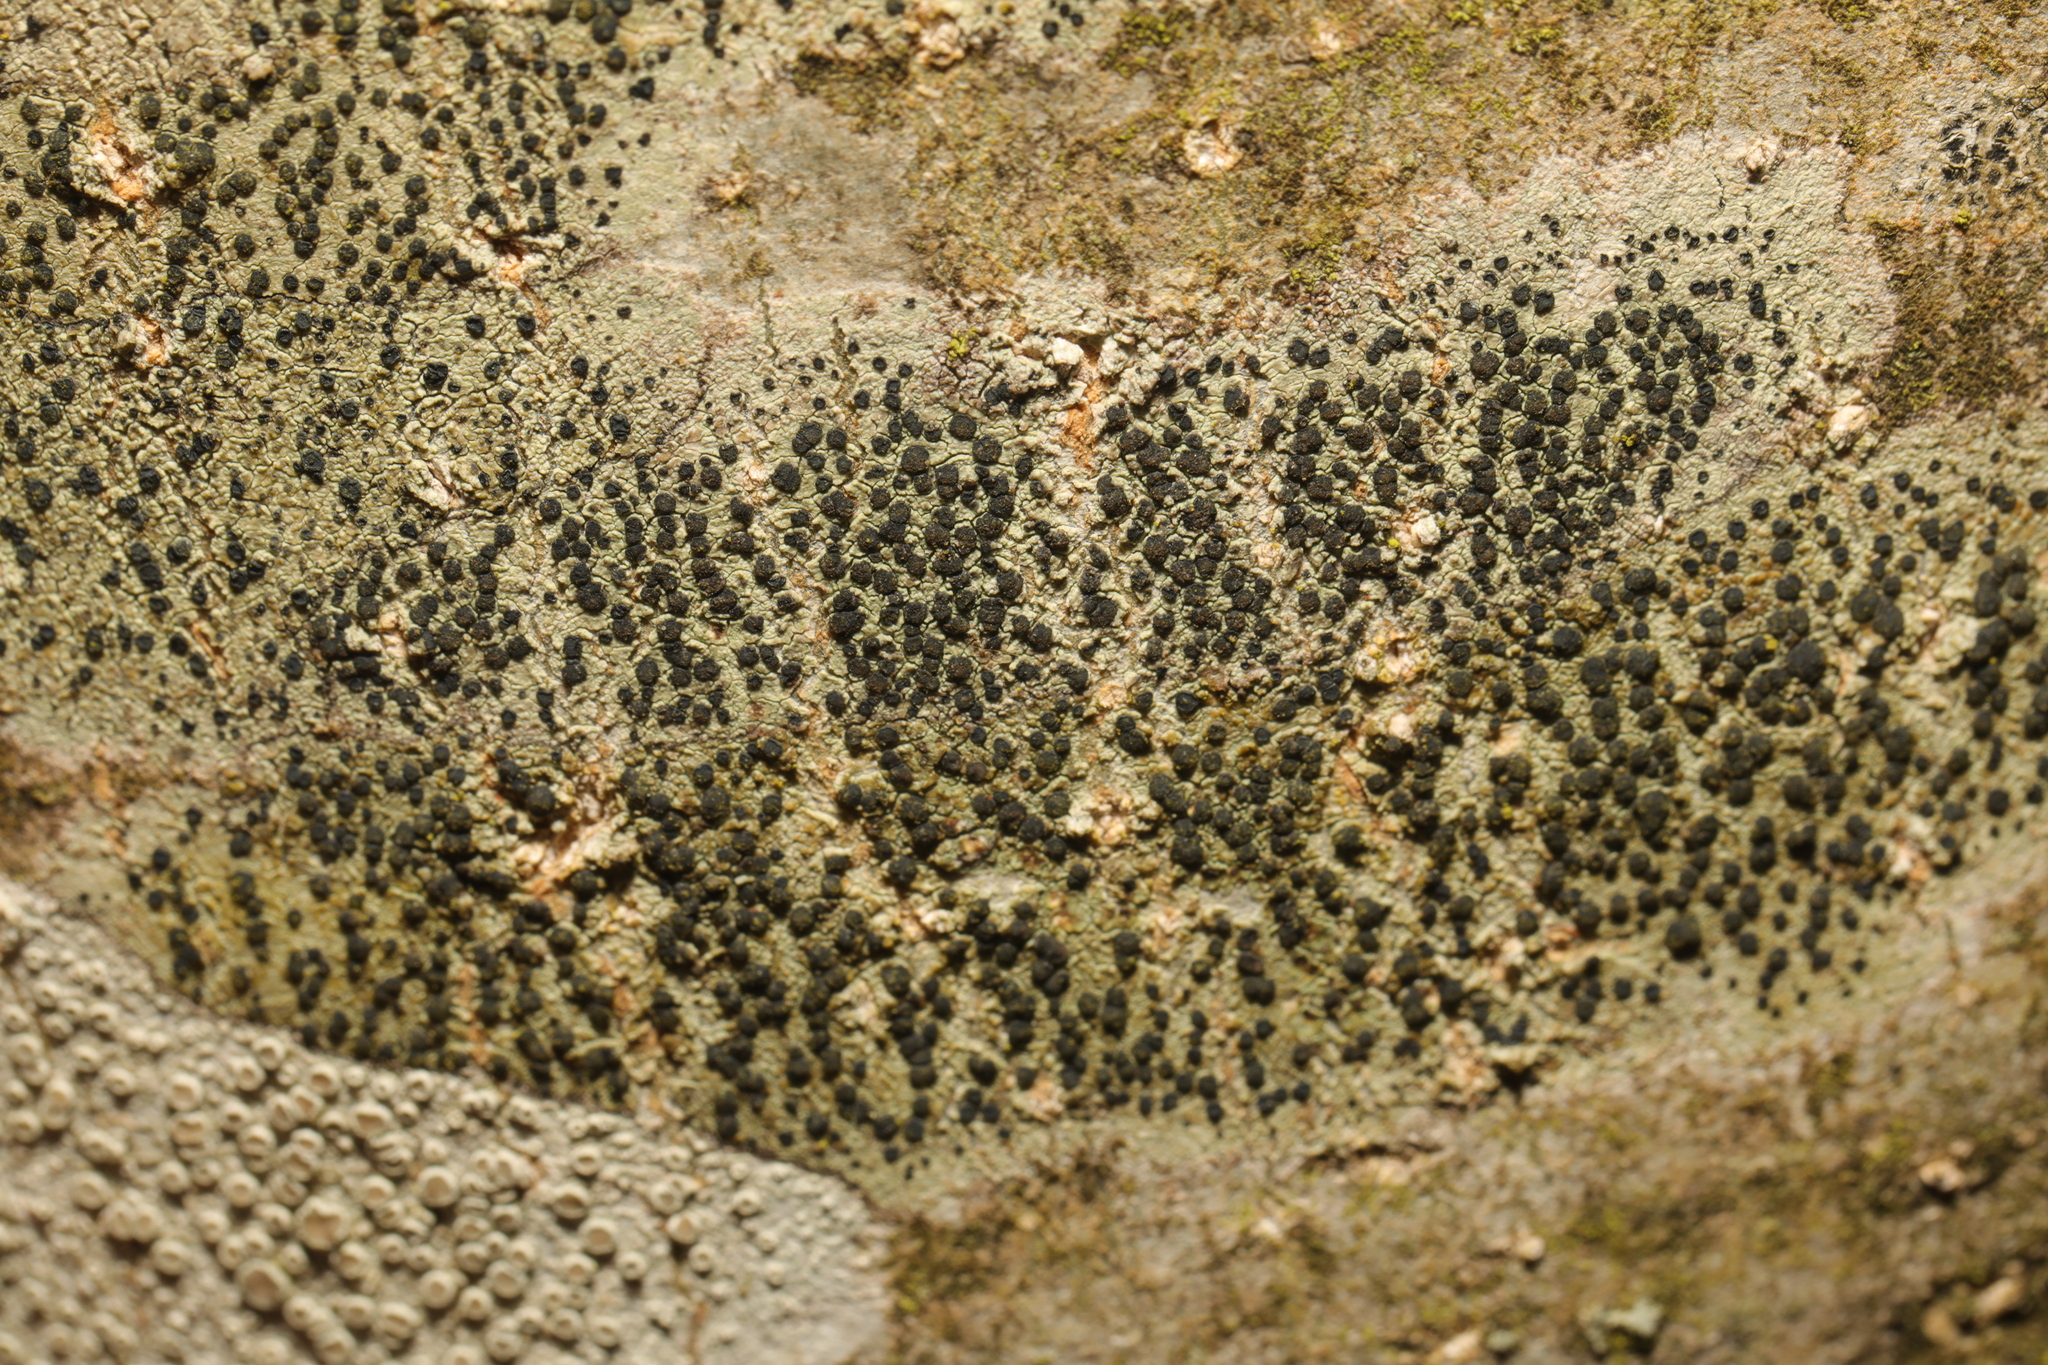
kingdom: Fungi
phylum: Ascomycota
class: Lecanoromycetes
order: Lecanorales
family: Lecanoraceae
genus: Lecidella
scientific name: Lecidella elaeochroma
